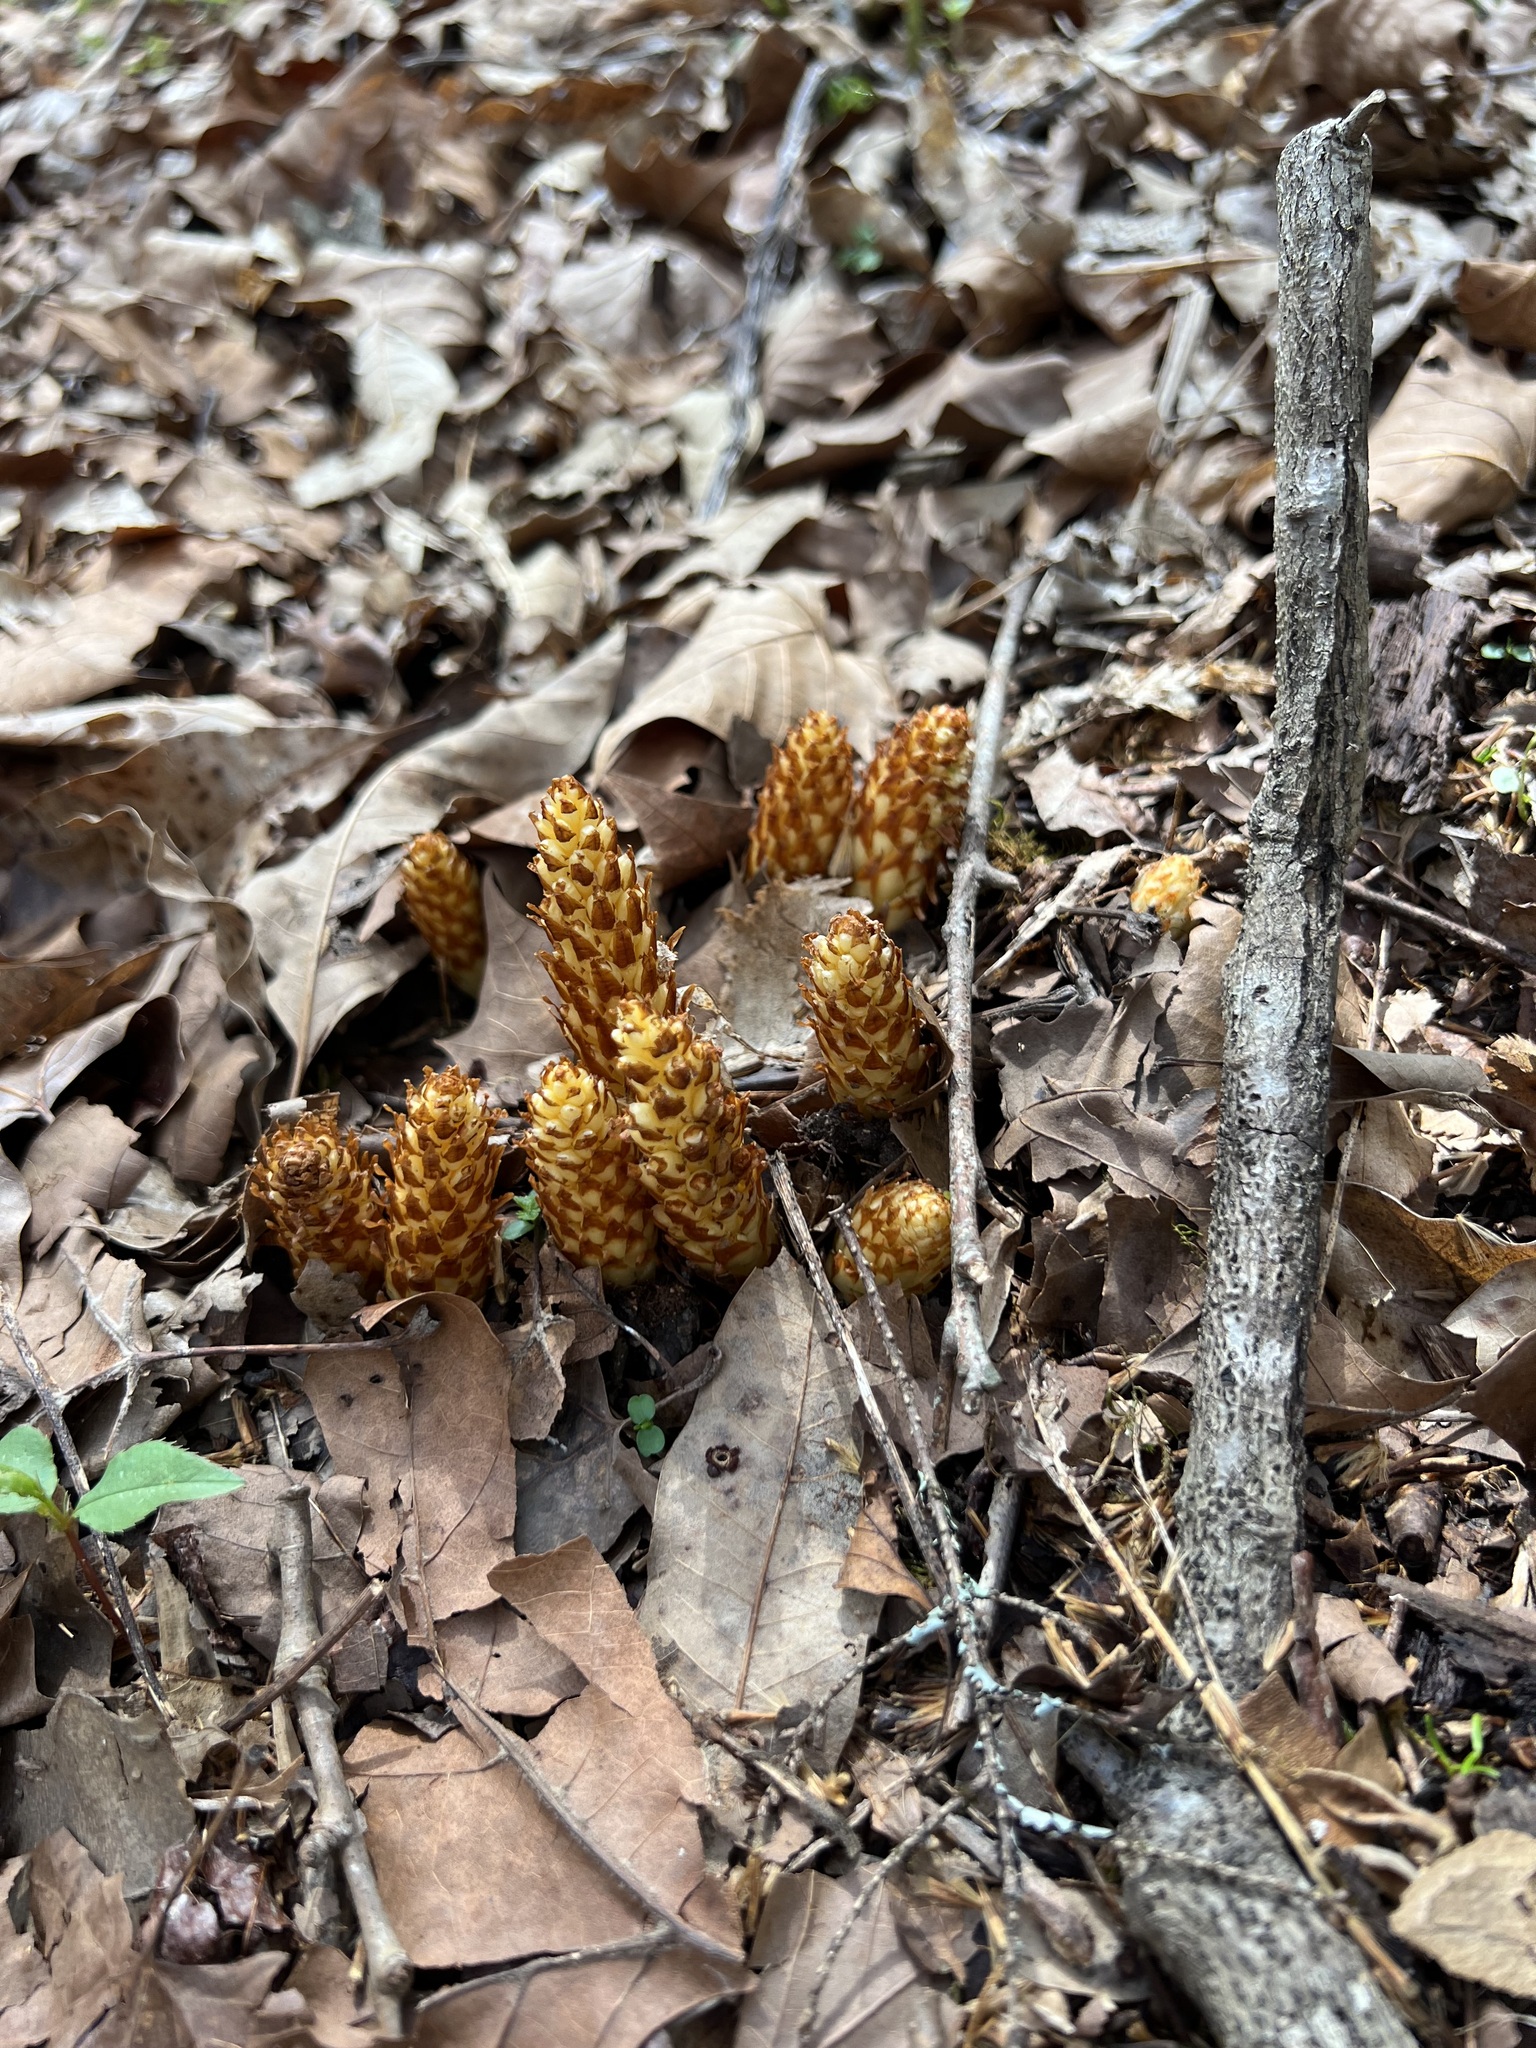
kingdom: Plantae
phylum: Tracheophyta
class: Magnoliopsida
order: Lamiales
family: Orobanchaceae
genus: Conopholis
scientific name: Conopholis americana
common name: American cancer-root
